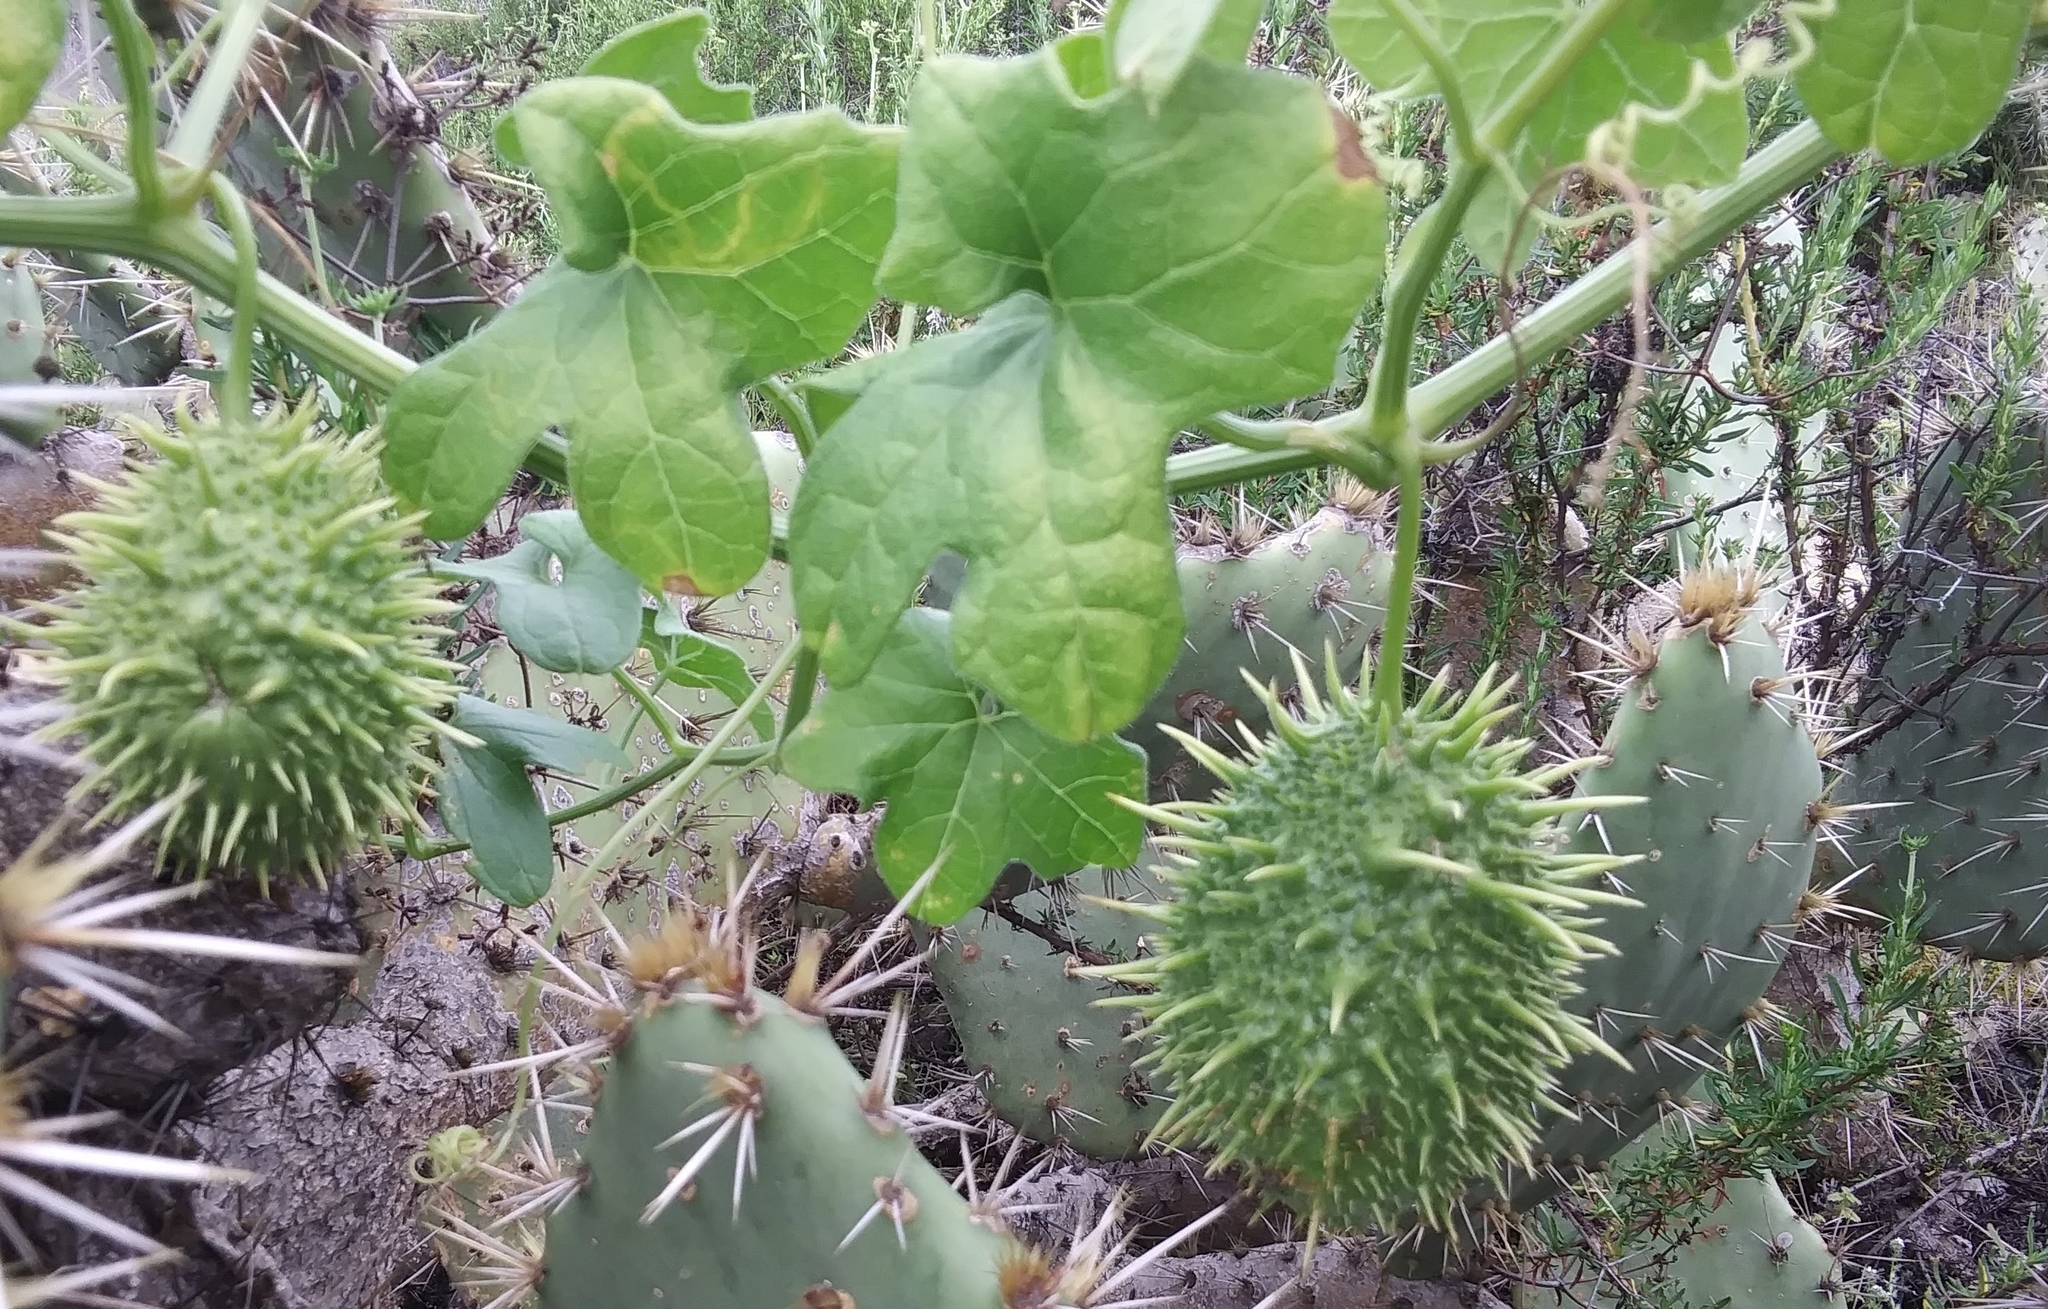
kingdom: Plantae
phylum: Tracheophyta
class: Magnoliopsida
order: Cucurbitales
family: Cucurbitaceae
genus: Marah
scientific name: Marah macrocarpa
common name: Cucamonga manroot
